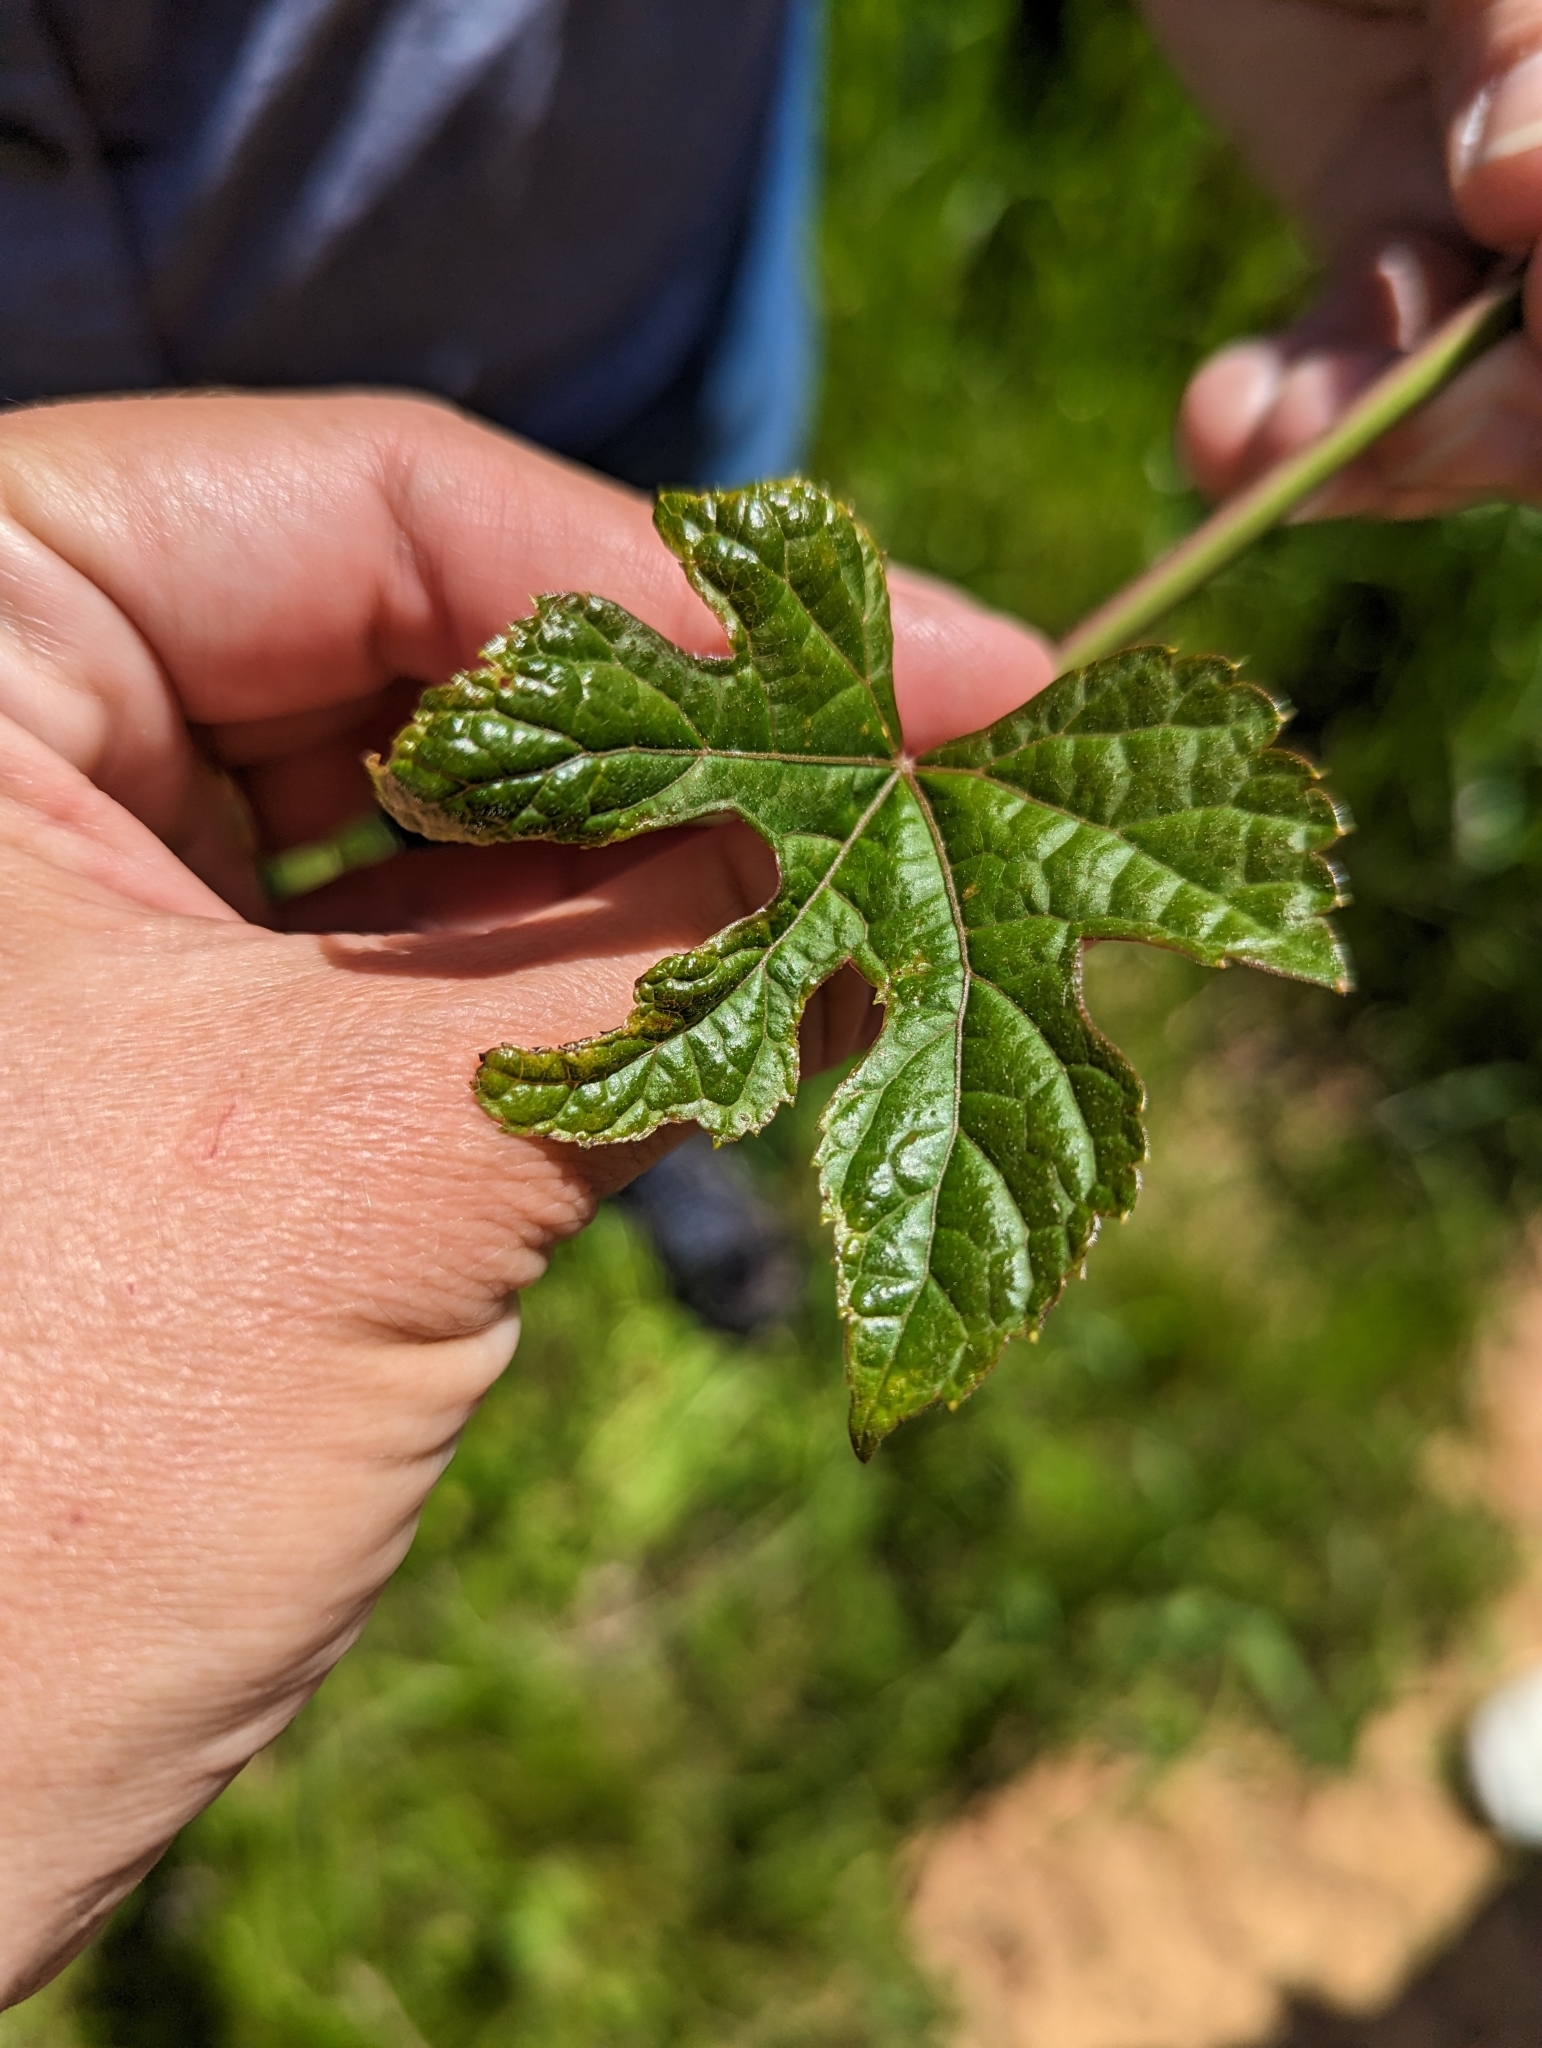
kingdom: Plantae
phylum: Tracheophyta
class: Magnoliopsida
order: Vitales
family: Vitaceae
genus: Ampelopsis
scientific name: Ampelopsis glandulosa
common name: Amur peppervine
